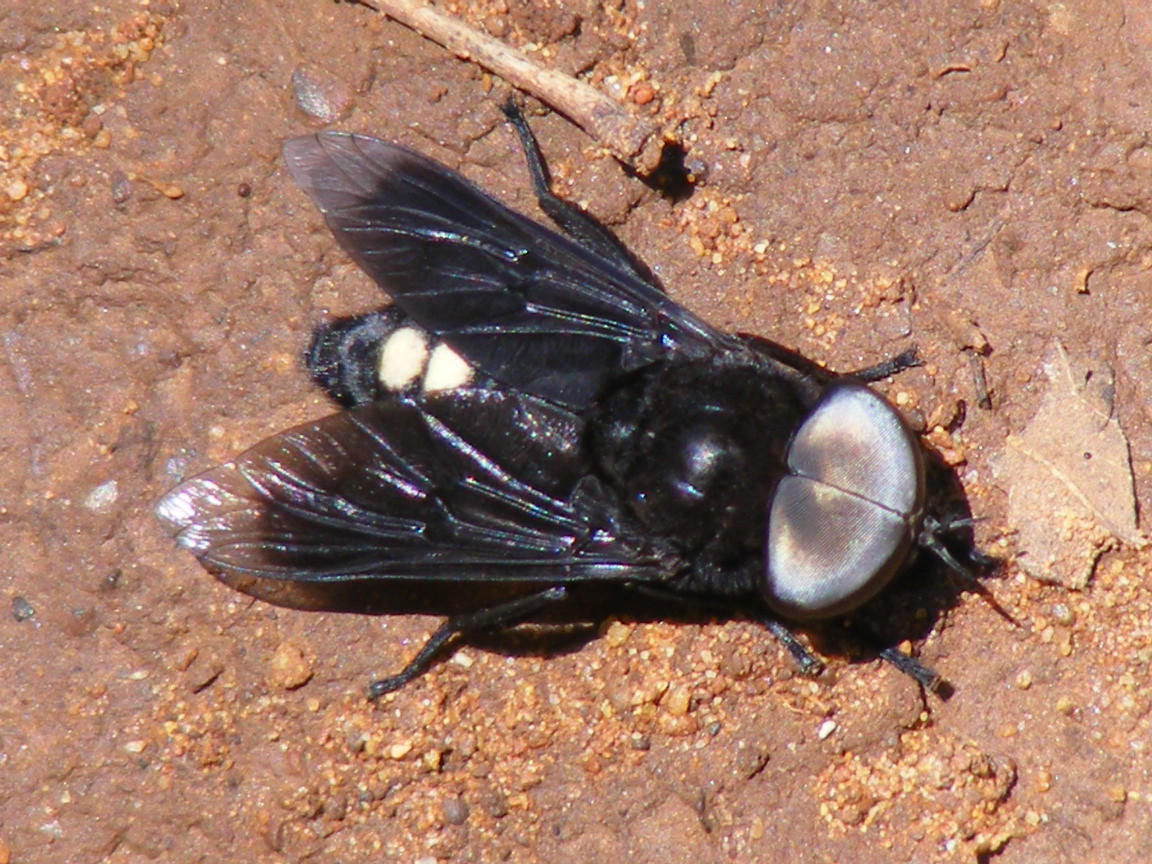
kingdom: Animalia
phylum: Arthropoda
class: Insecta
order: Diptera
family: Tabanidae
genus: Tabanus
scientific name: Tabanus biguttatus
